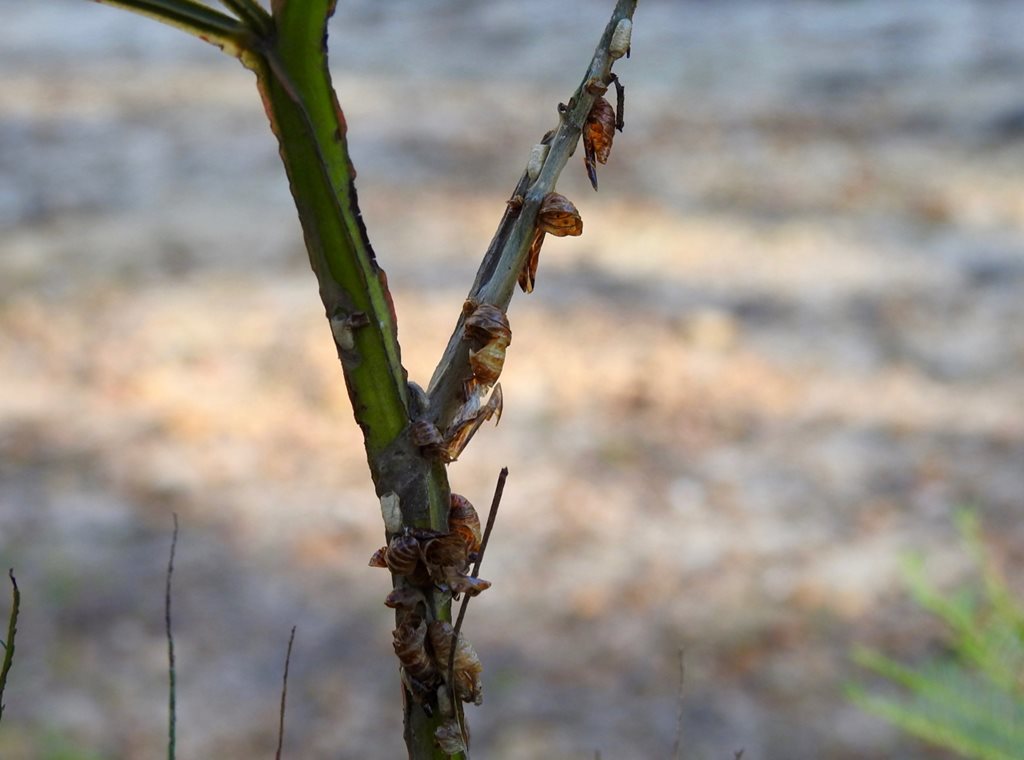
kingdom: Animalia
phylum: Arthropoda
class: Insecta
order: Lepidoptera
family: Lycaenidae
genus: Jalmenus
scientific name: Jalmenus evagoras
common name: Common imperial blue
